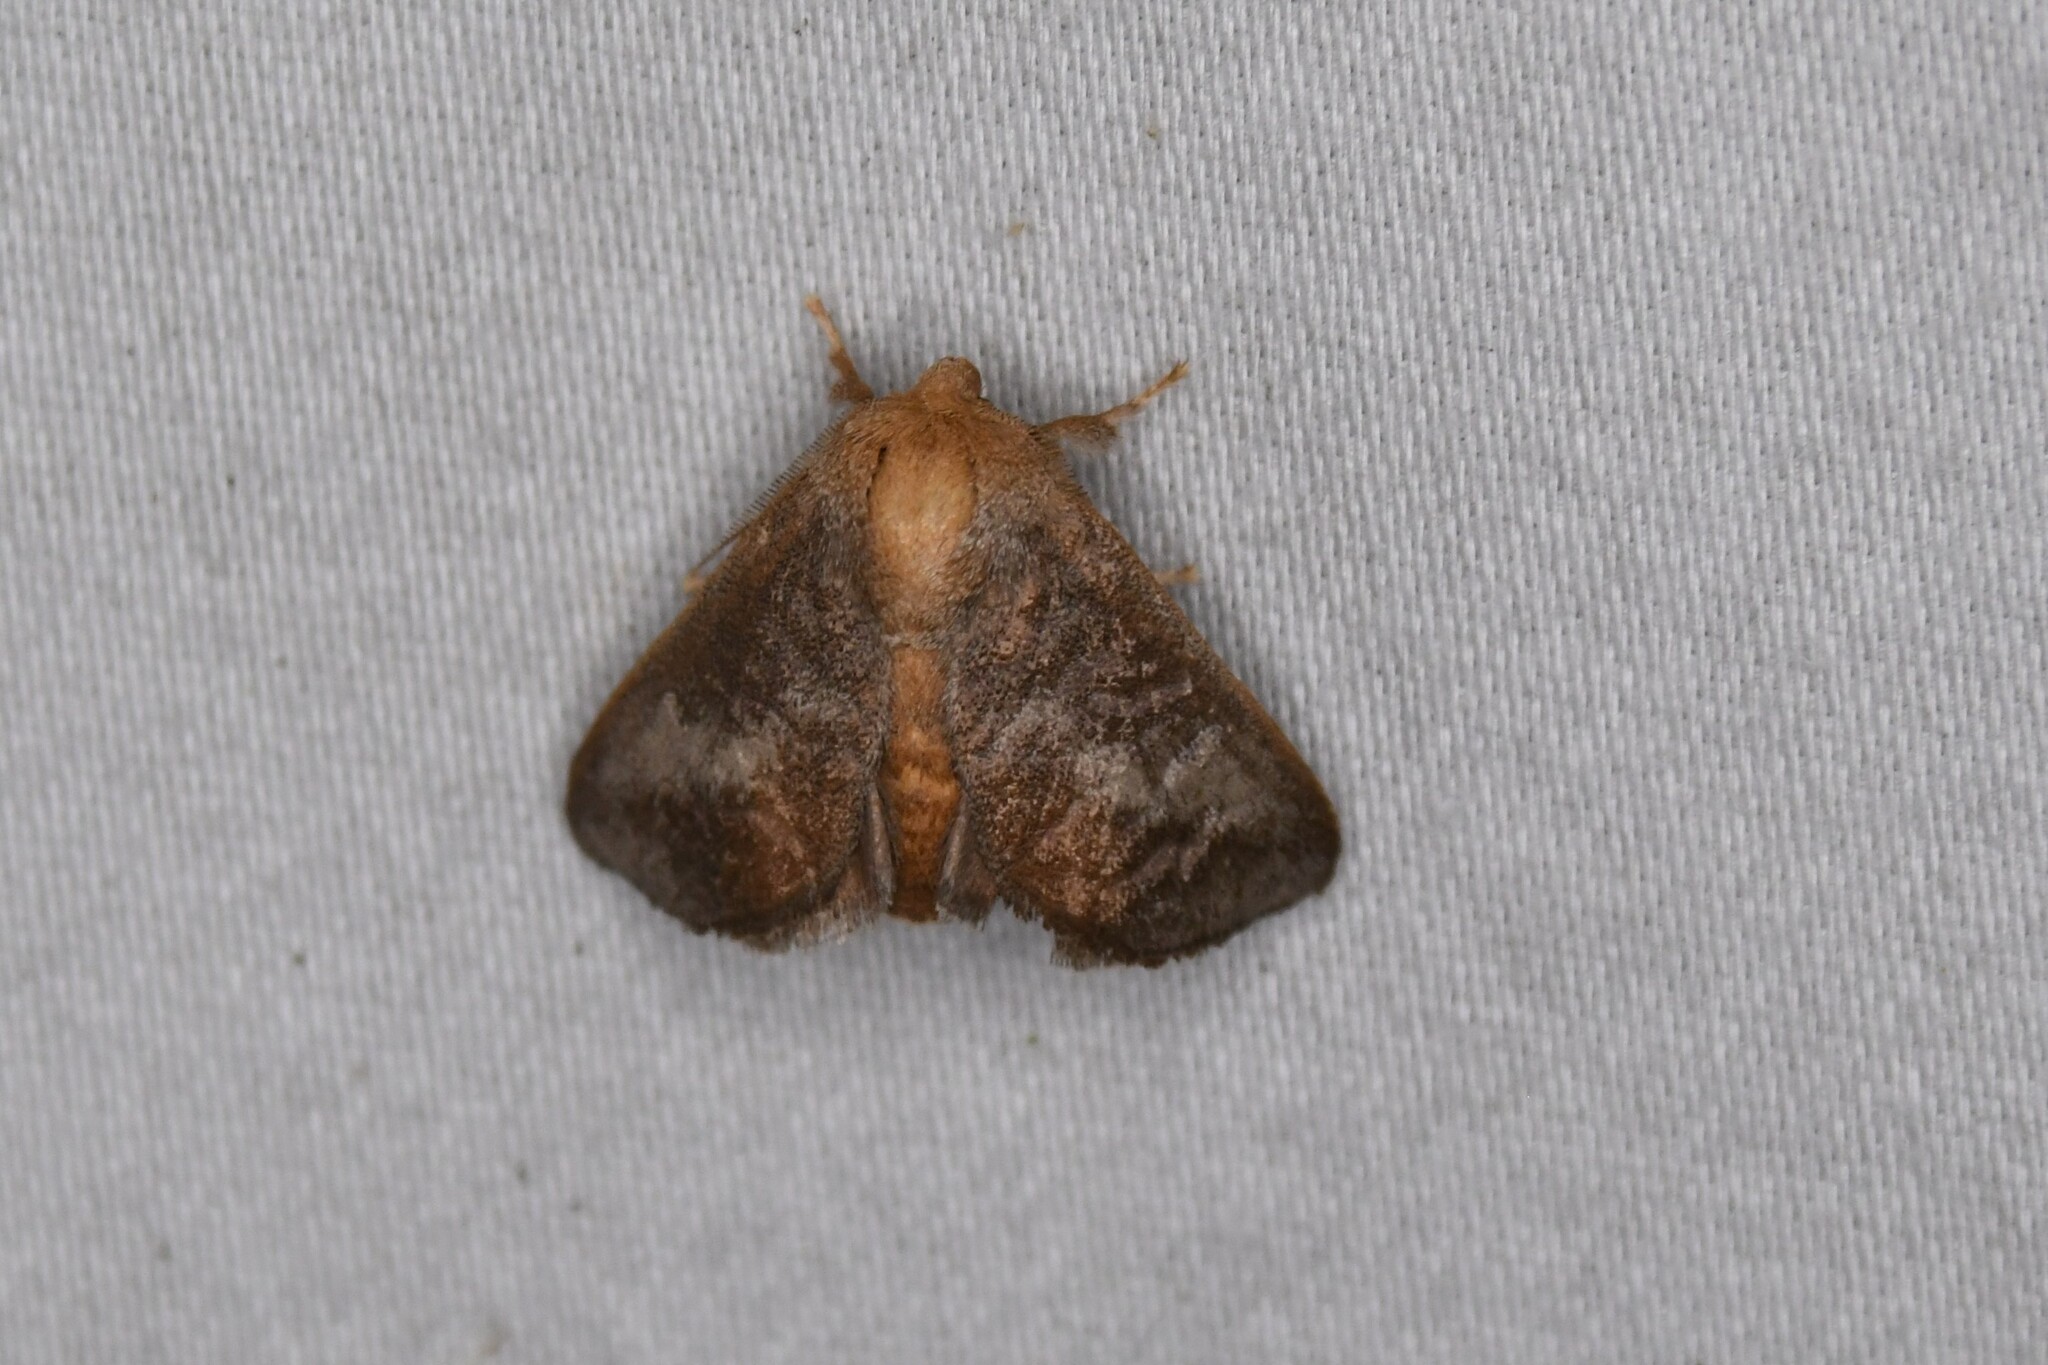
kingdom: Animalia
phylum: Arthropoda
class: Insecta
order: Lepidoptera
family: Limacodidae
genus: Isa
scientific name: Isa textula
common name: Crowned slug moth
